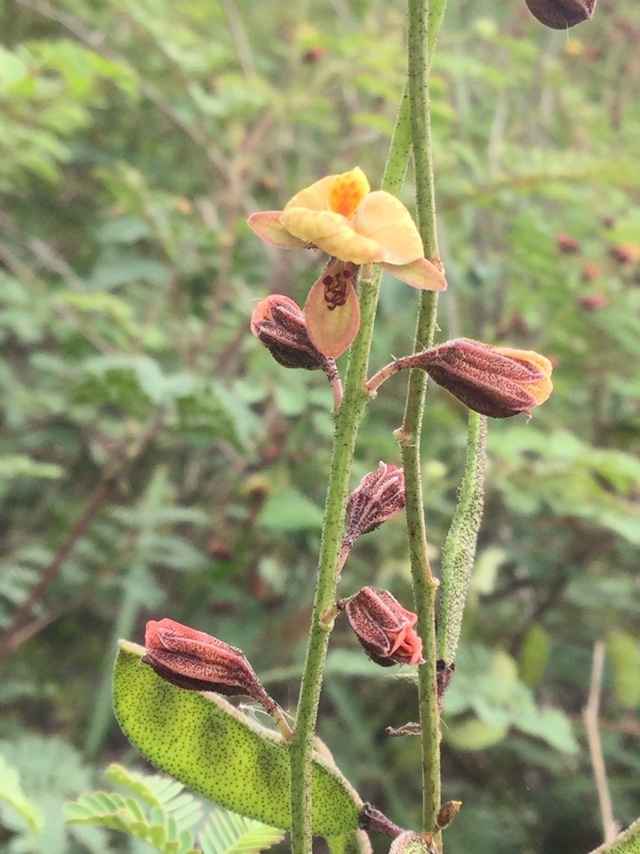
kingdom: Plantae
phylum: Tracheophyta
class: Magnoliopsida
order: Fabales
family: Fabaceae
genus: Pomaria
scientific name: Pomaria glandulosa
